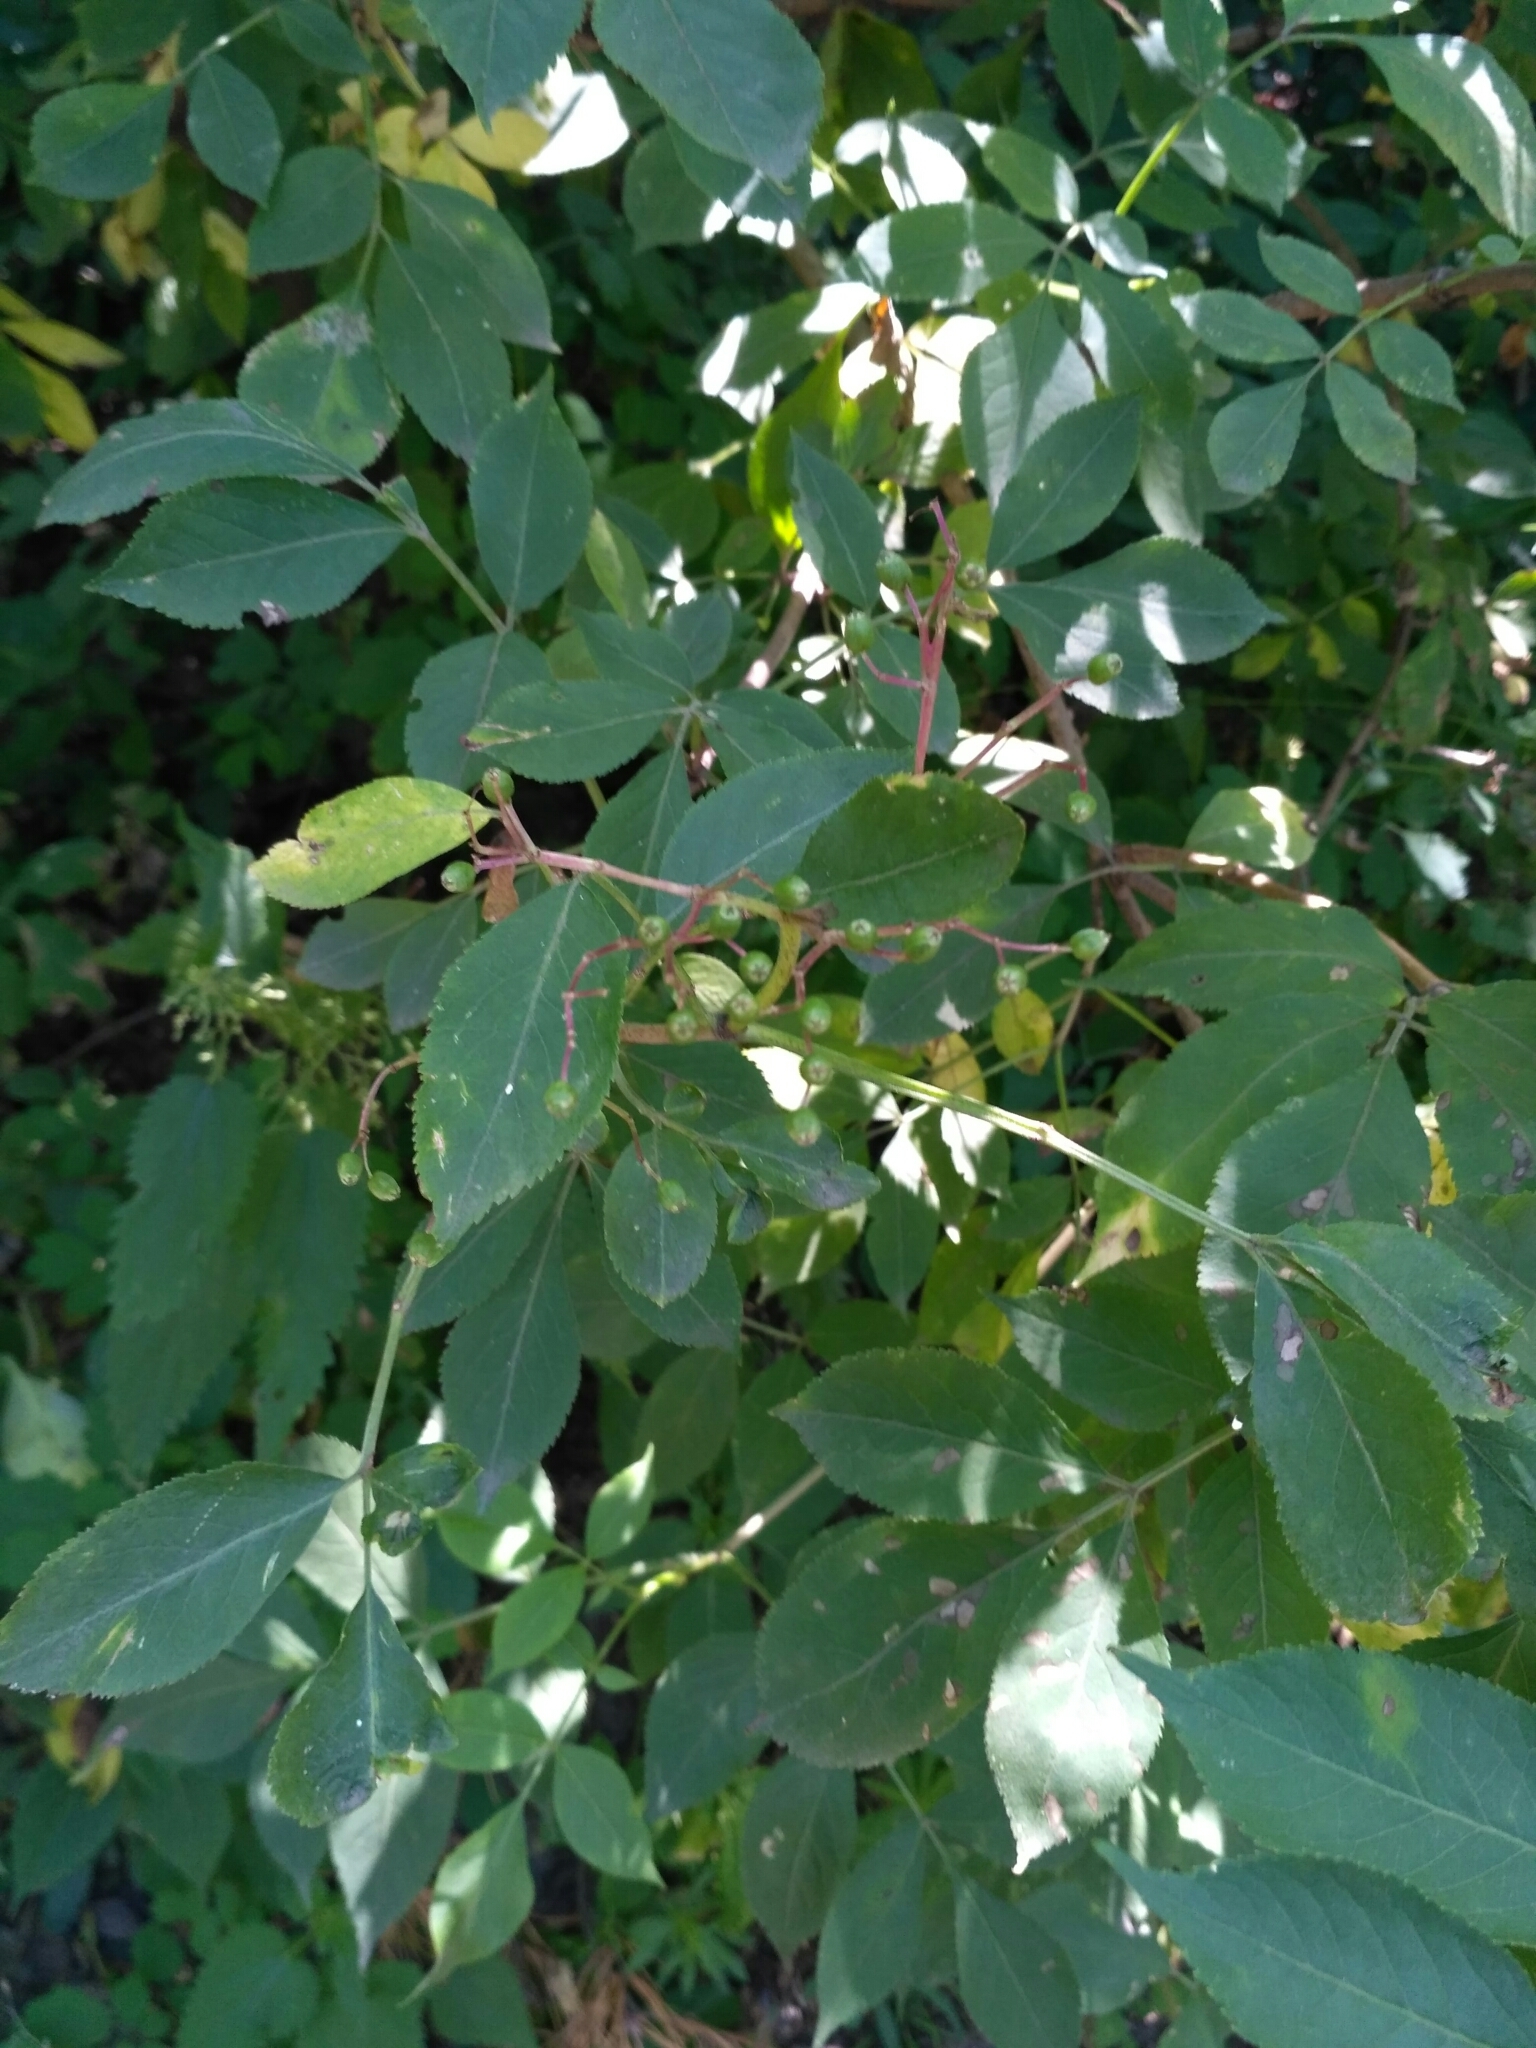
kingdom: Plantae
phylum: Tracheophyta
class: Magnoliopsida
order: Dipsacales
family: Viburnaceae
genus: Sambucus
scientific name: Sambucus nigra
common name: Elder
